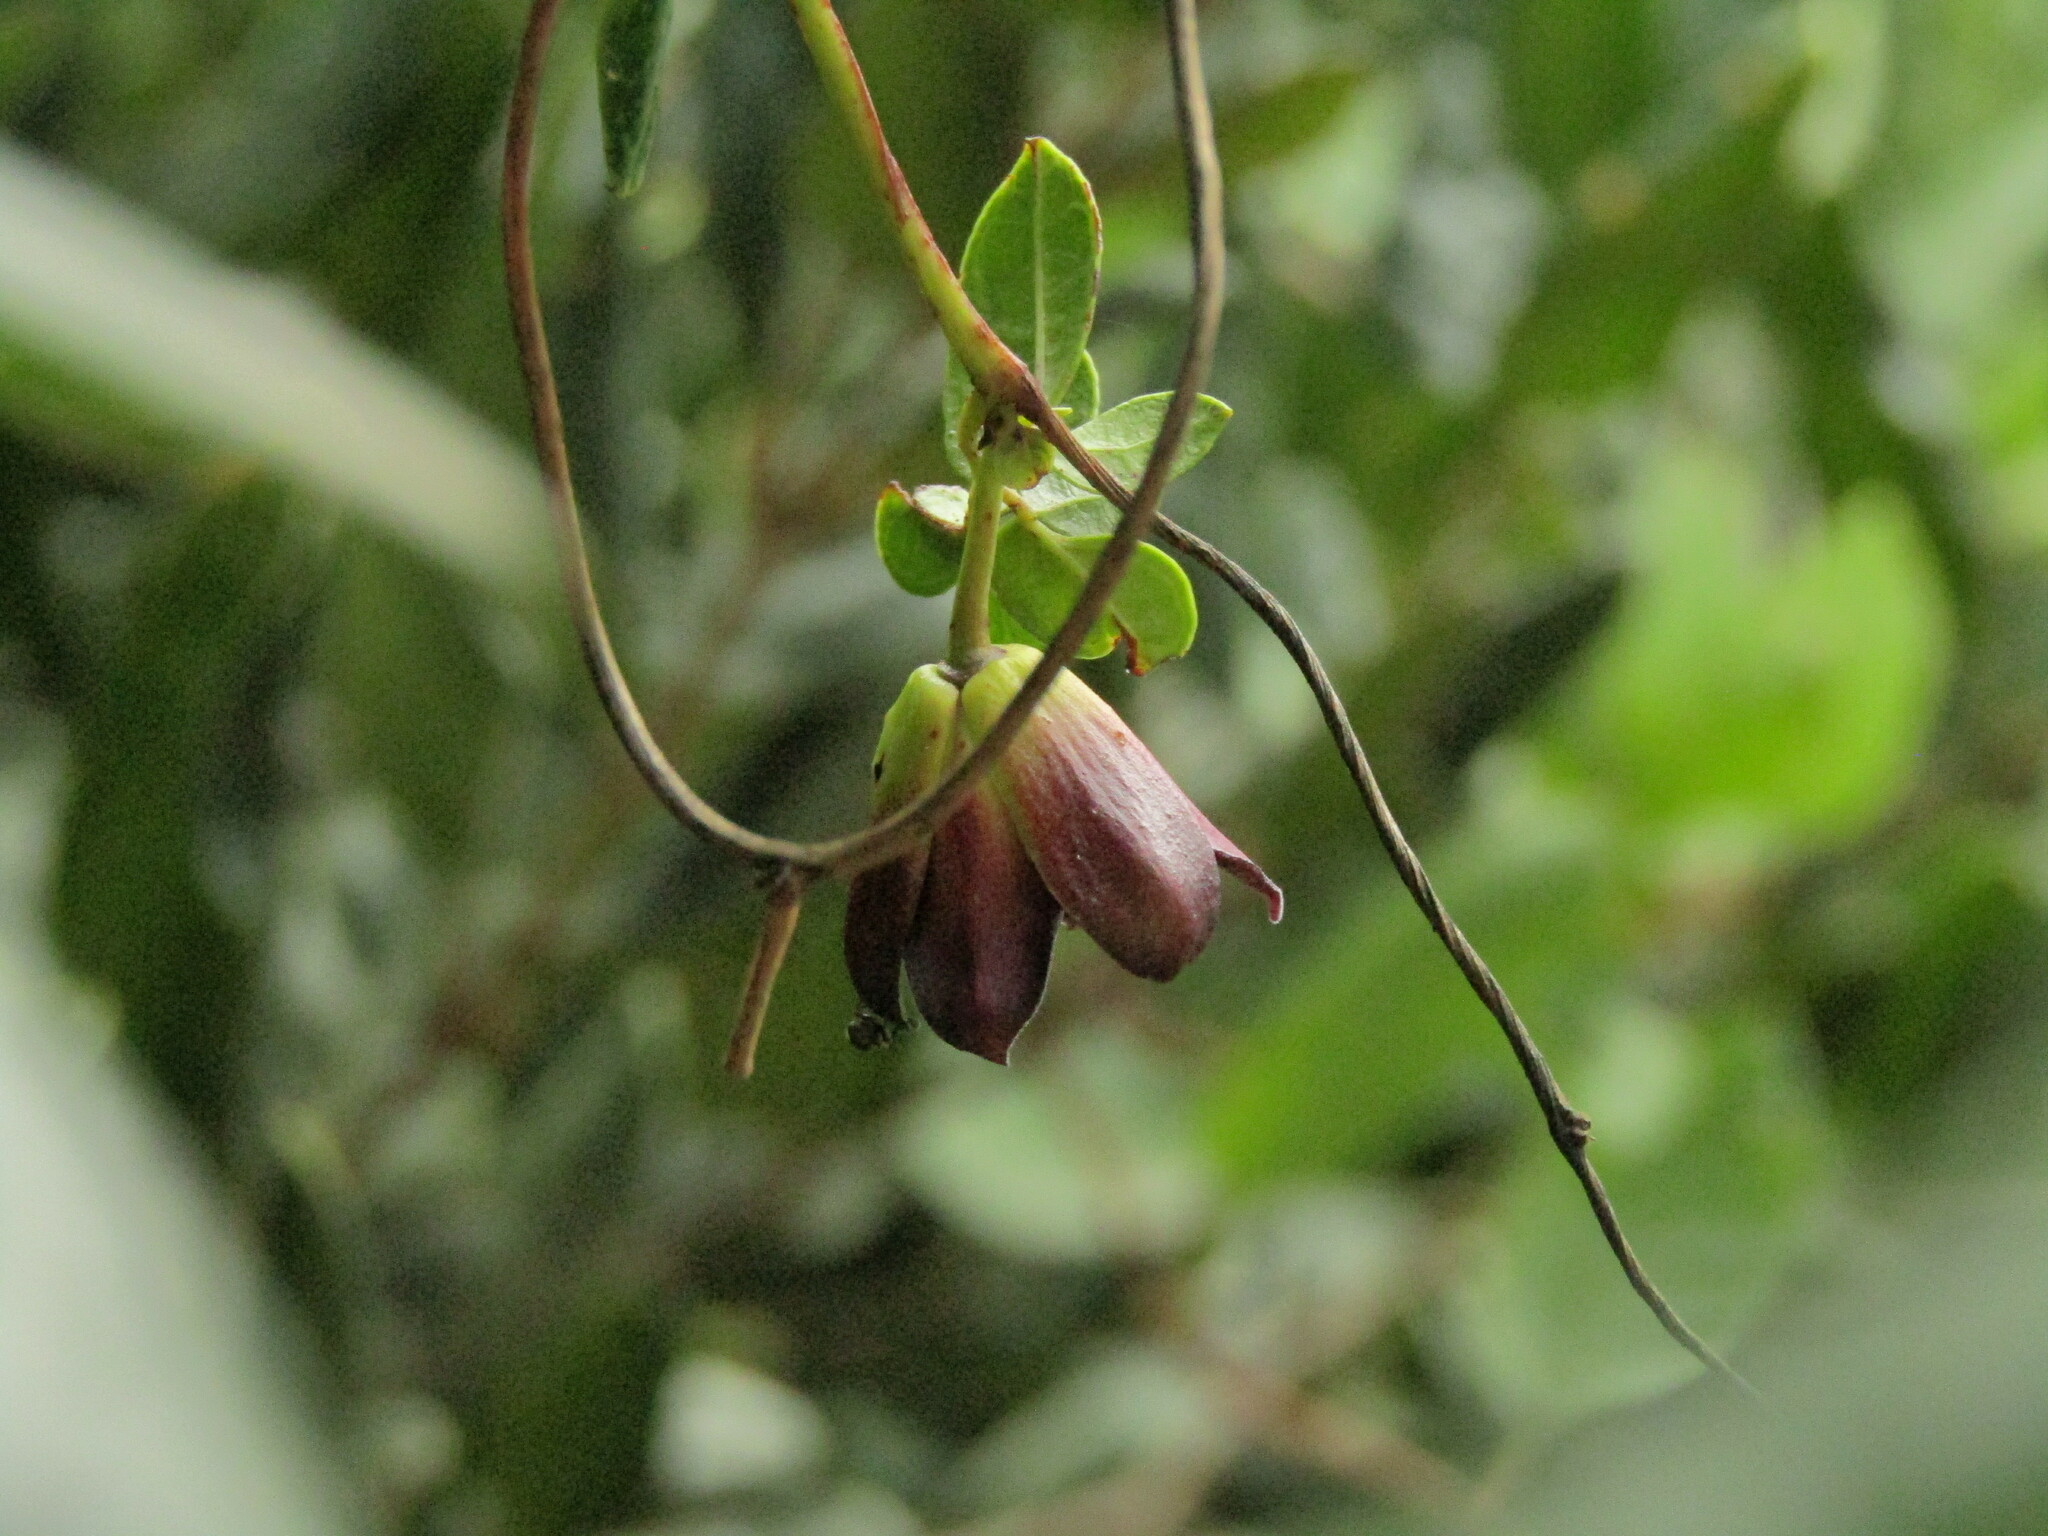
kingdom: Plantae
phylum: Tracheophyta
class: Magnoliopsida
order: Ranunculales
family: Lardizabalaceae
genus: Lardizabala
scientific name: Lardizabala funaria
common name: Zabala
